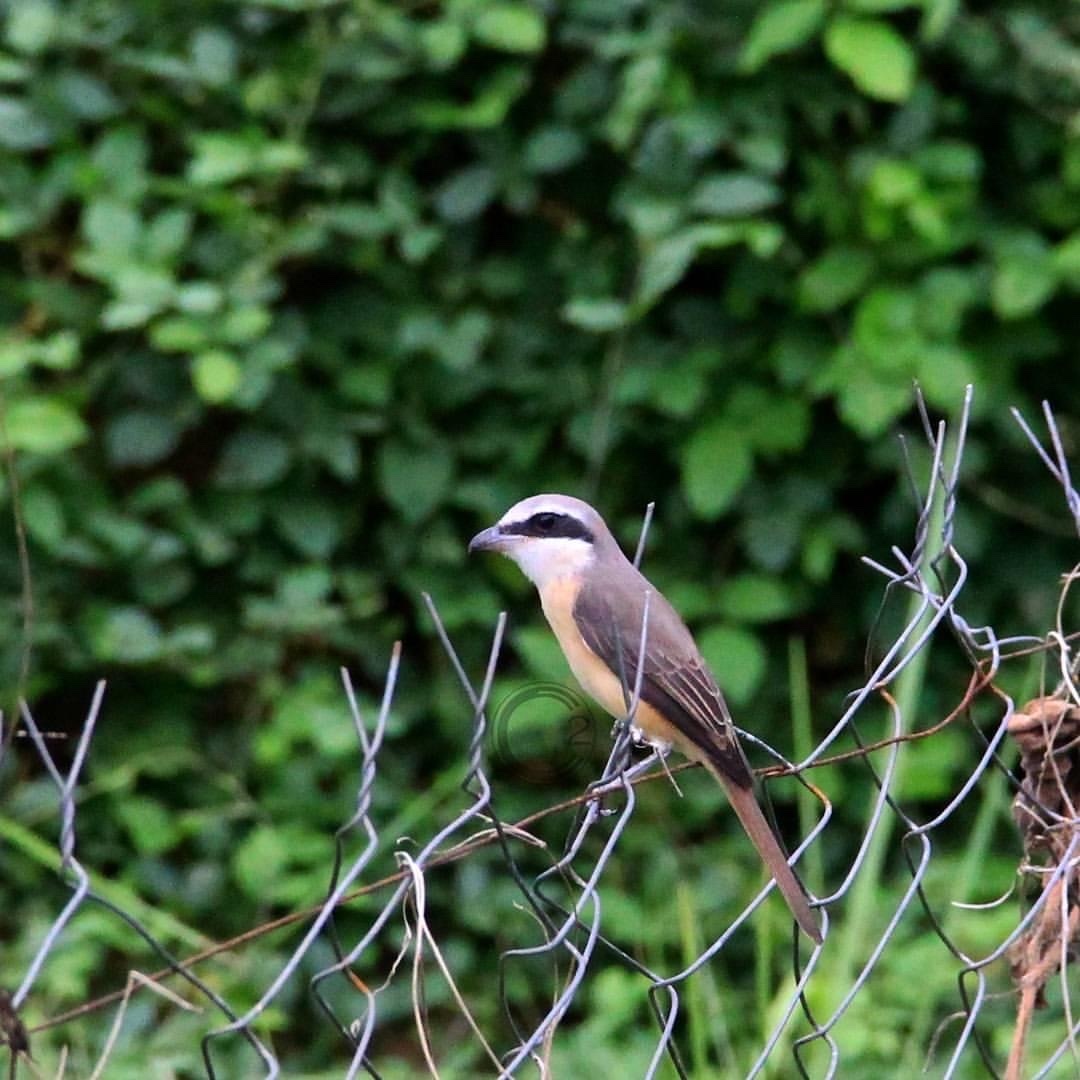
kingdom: Animalia
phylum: Chordata
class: Aves
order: Passeriformes
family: Laniidae
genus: Lanius
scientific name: Lanius cristatus
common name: Brown shrike
